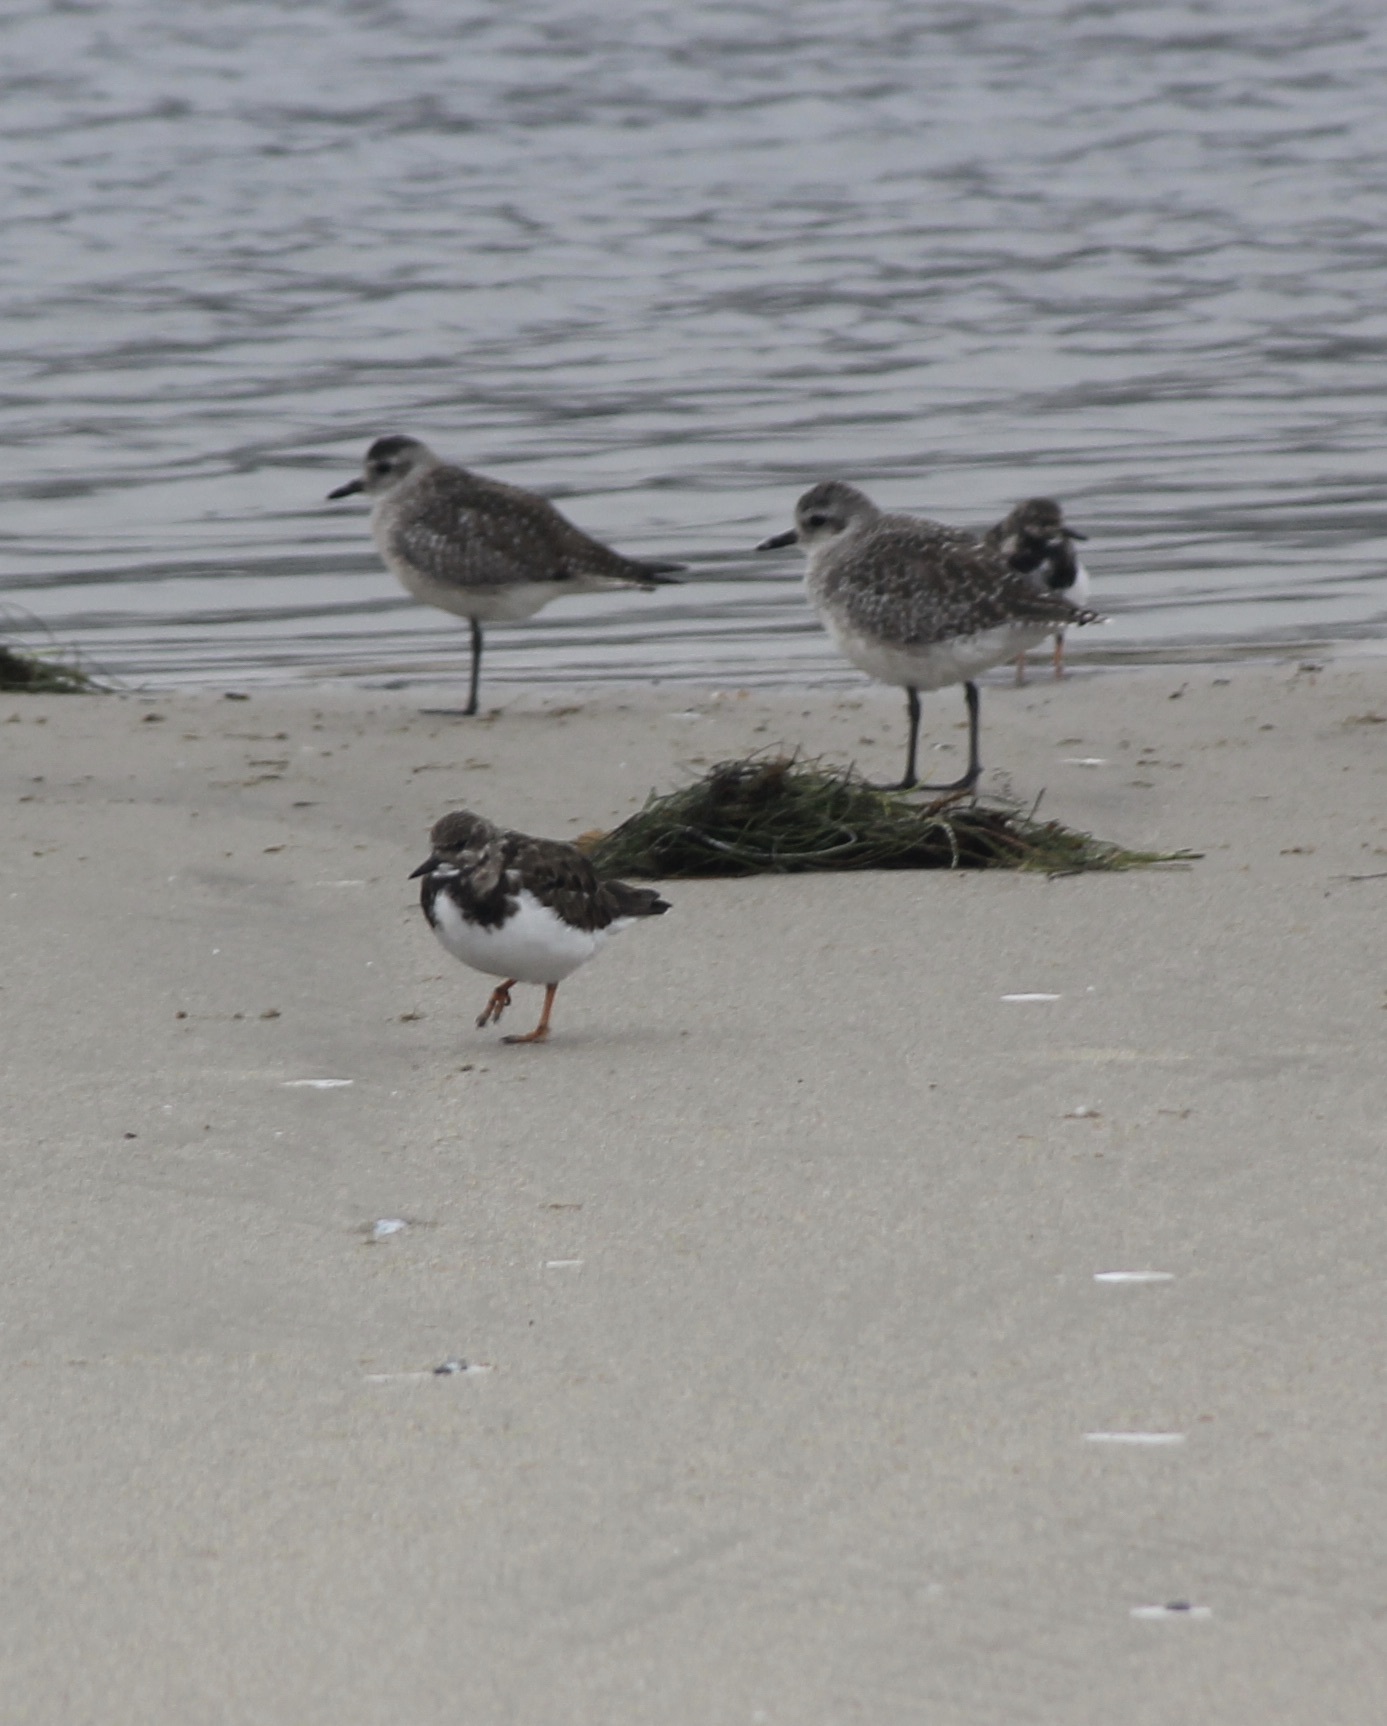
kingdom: Animalia
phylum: Chordata
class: Aves
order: Charadriiformes
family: Scolopacidae
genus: Arenaria
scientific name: Arenaria interpres
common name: Ruddy turnstone
